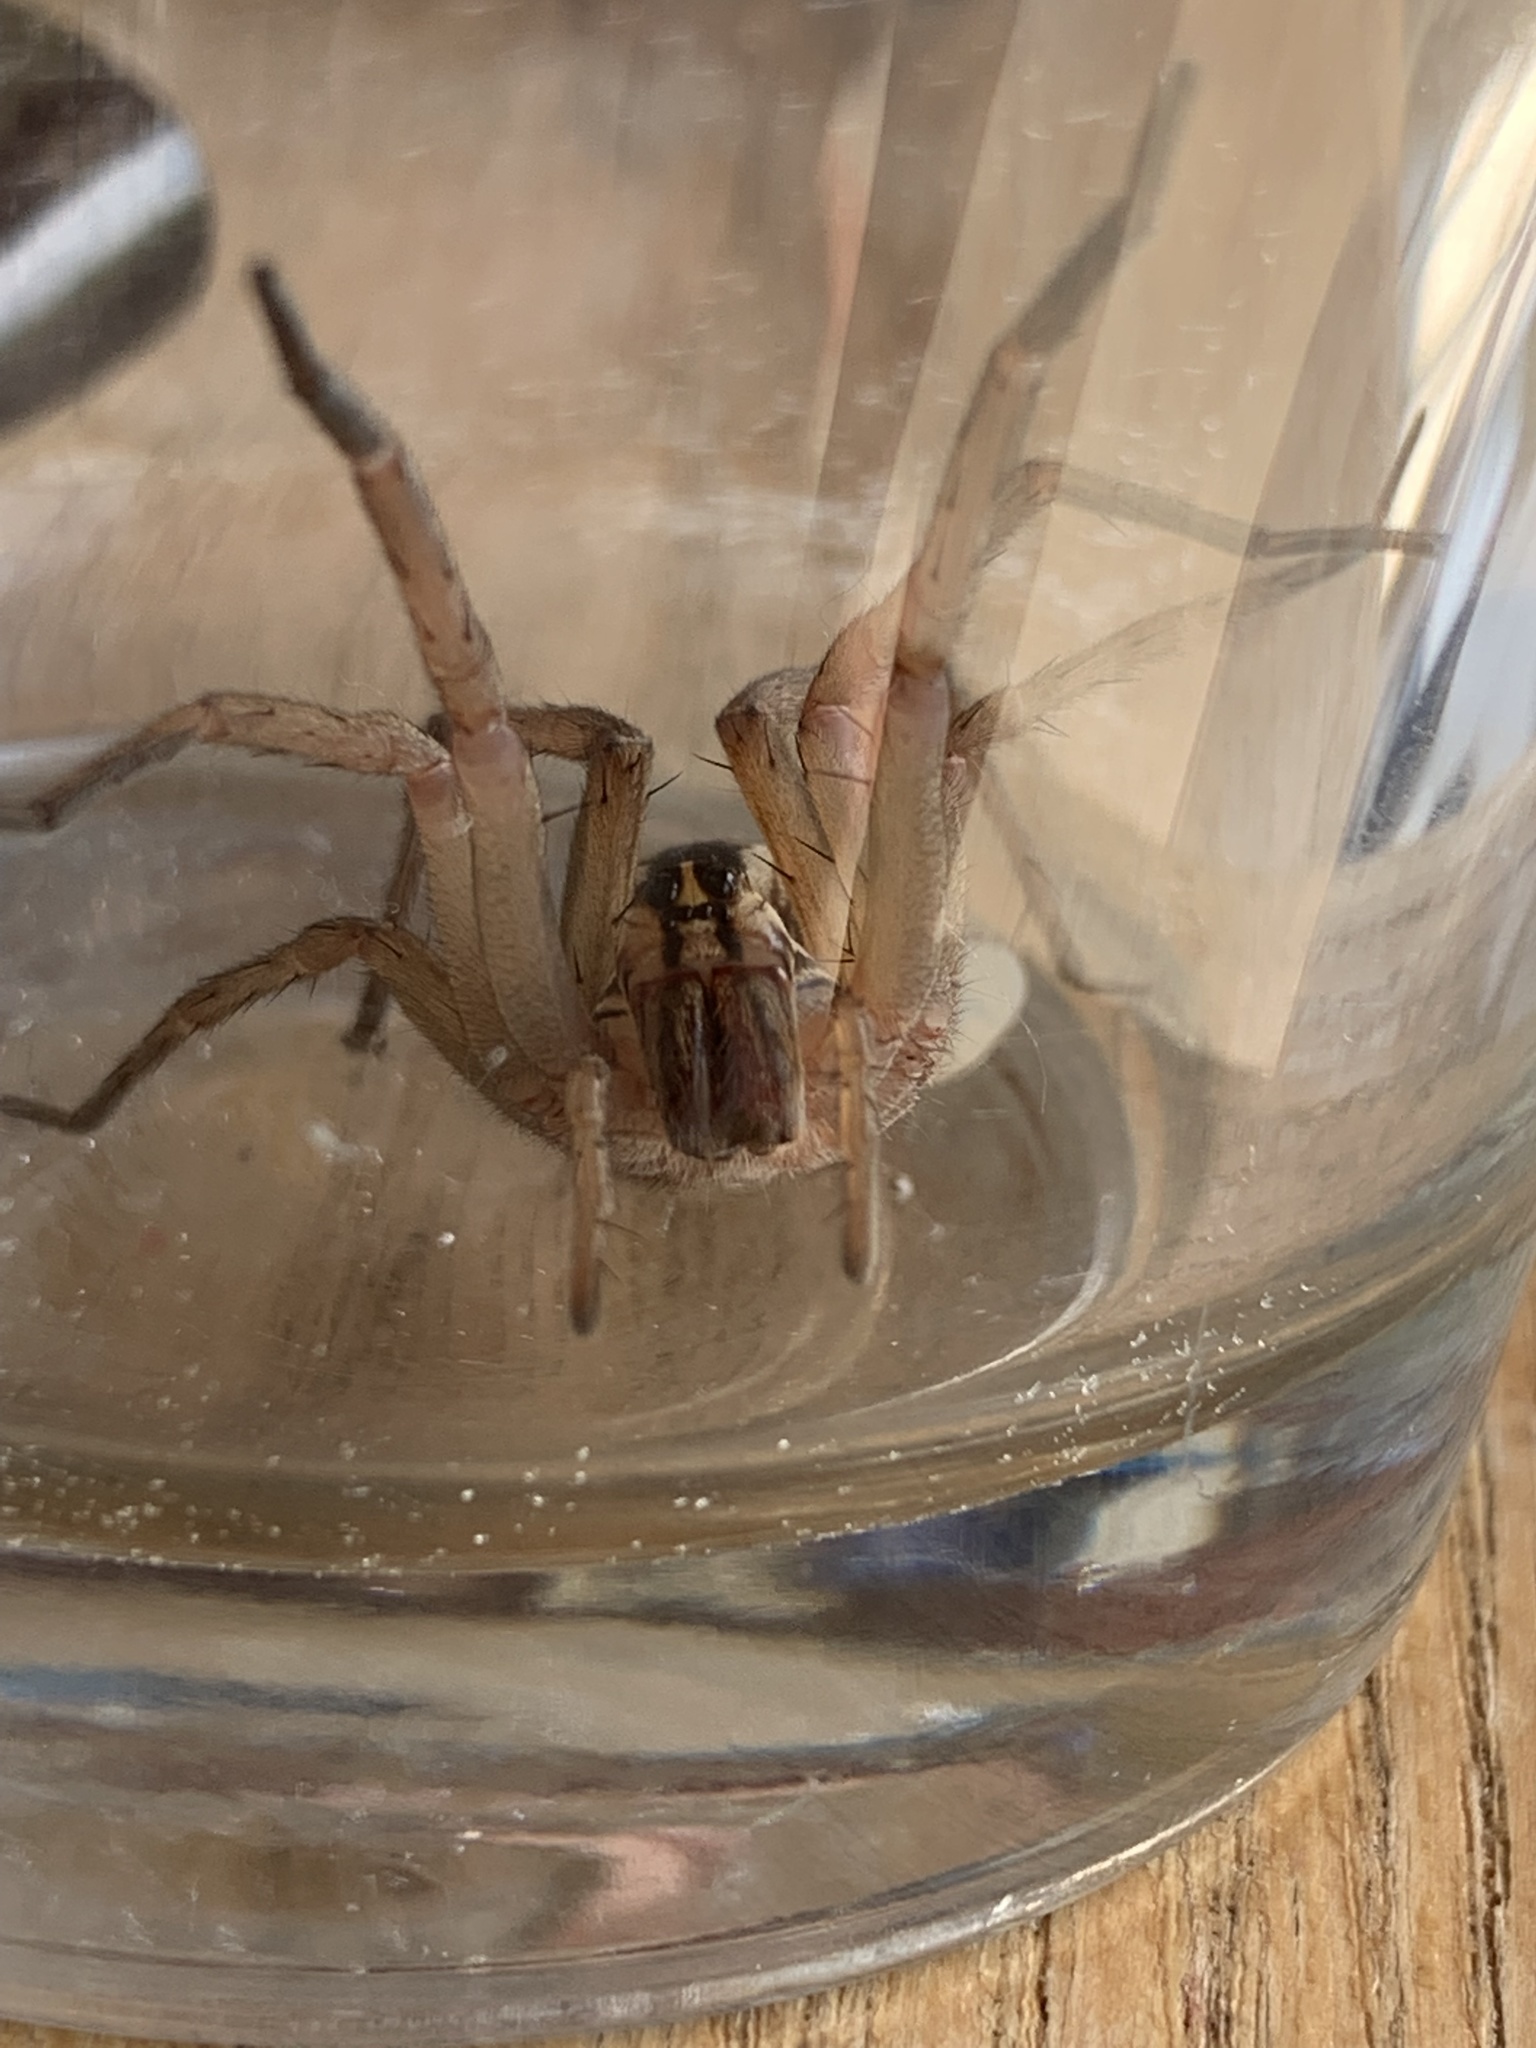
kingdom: Animalia
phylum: Arthropoda
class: Arachnida
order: Araneae
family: Lycosidae
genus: Rabidosa
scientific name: Rabidosa rabida
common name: Rabid wolf spider
